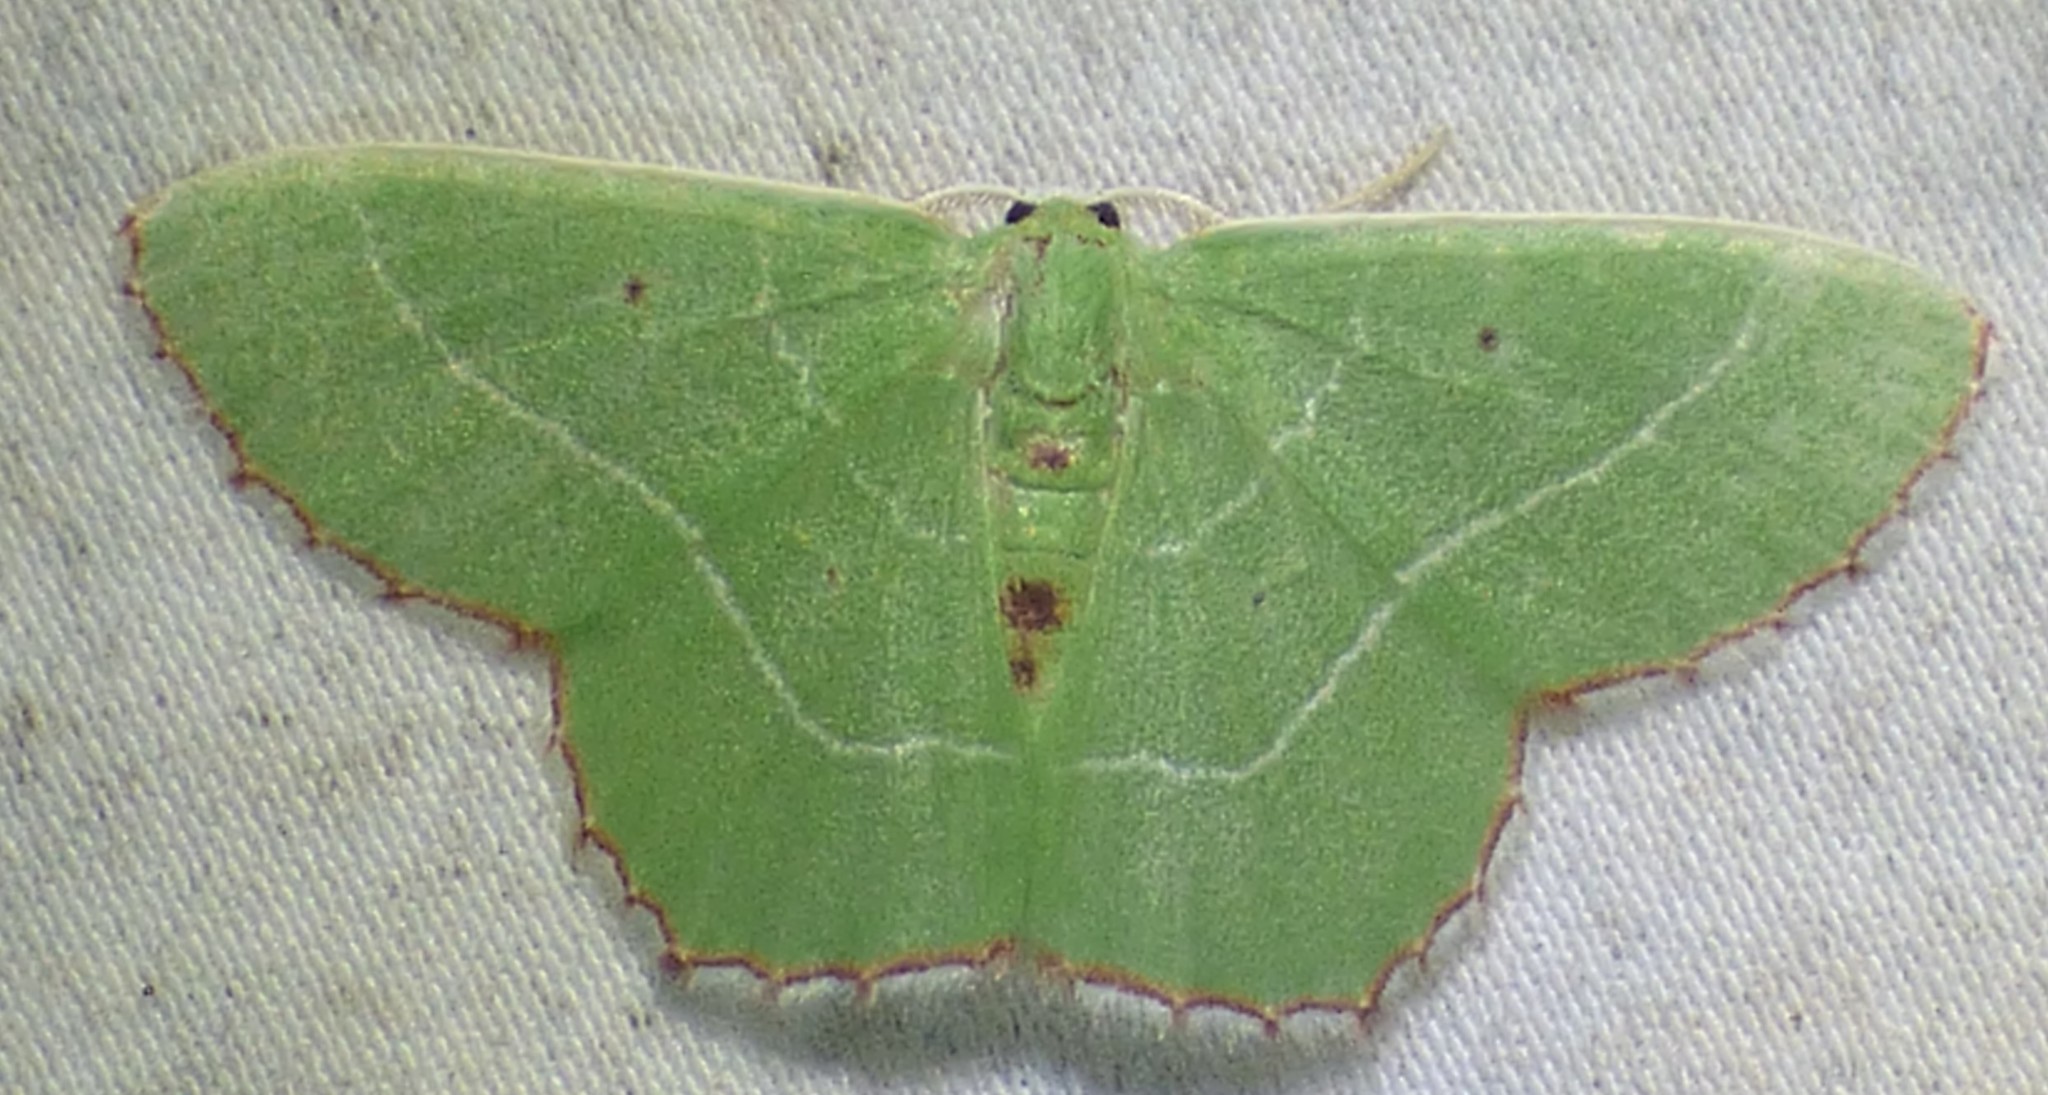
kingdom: Animalia
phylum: Arthropoda
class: Insecta
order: Lepidoptera
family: Geometridae
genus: Nemoria
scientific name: Nemoria saturiba
